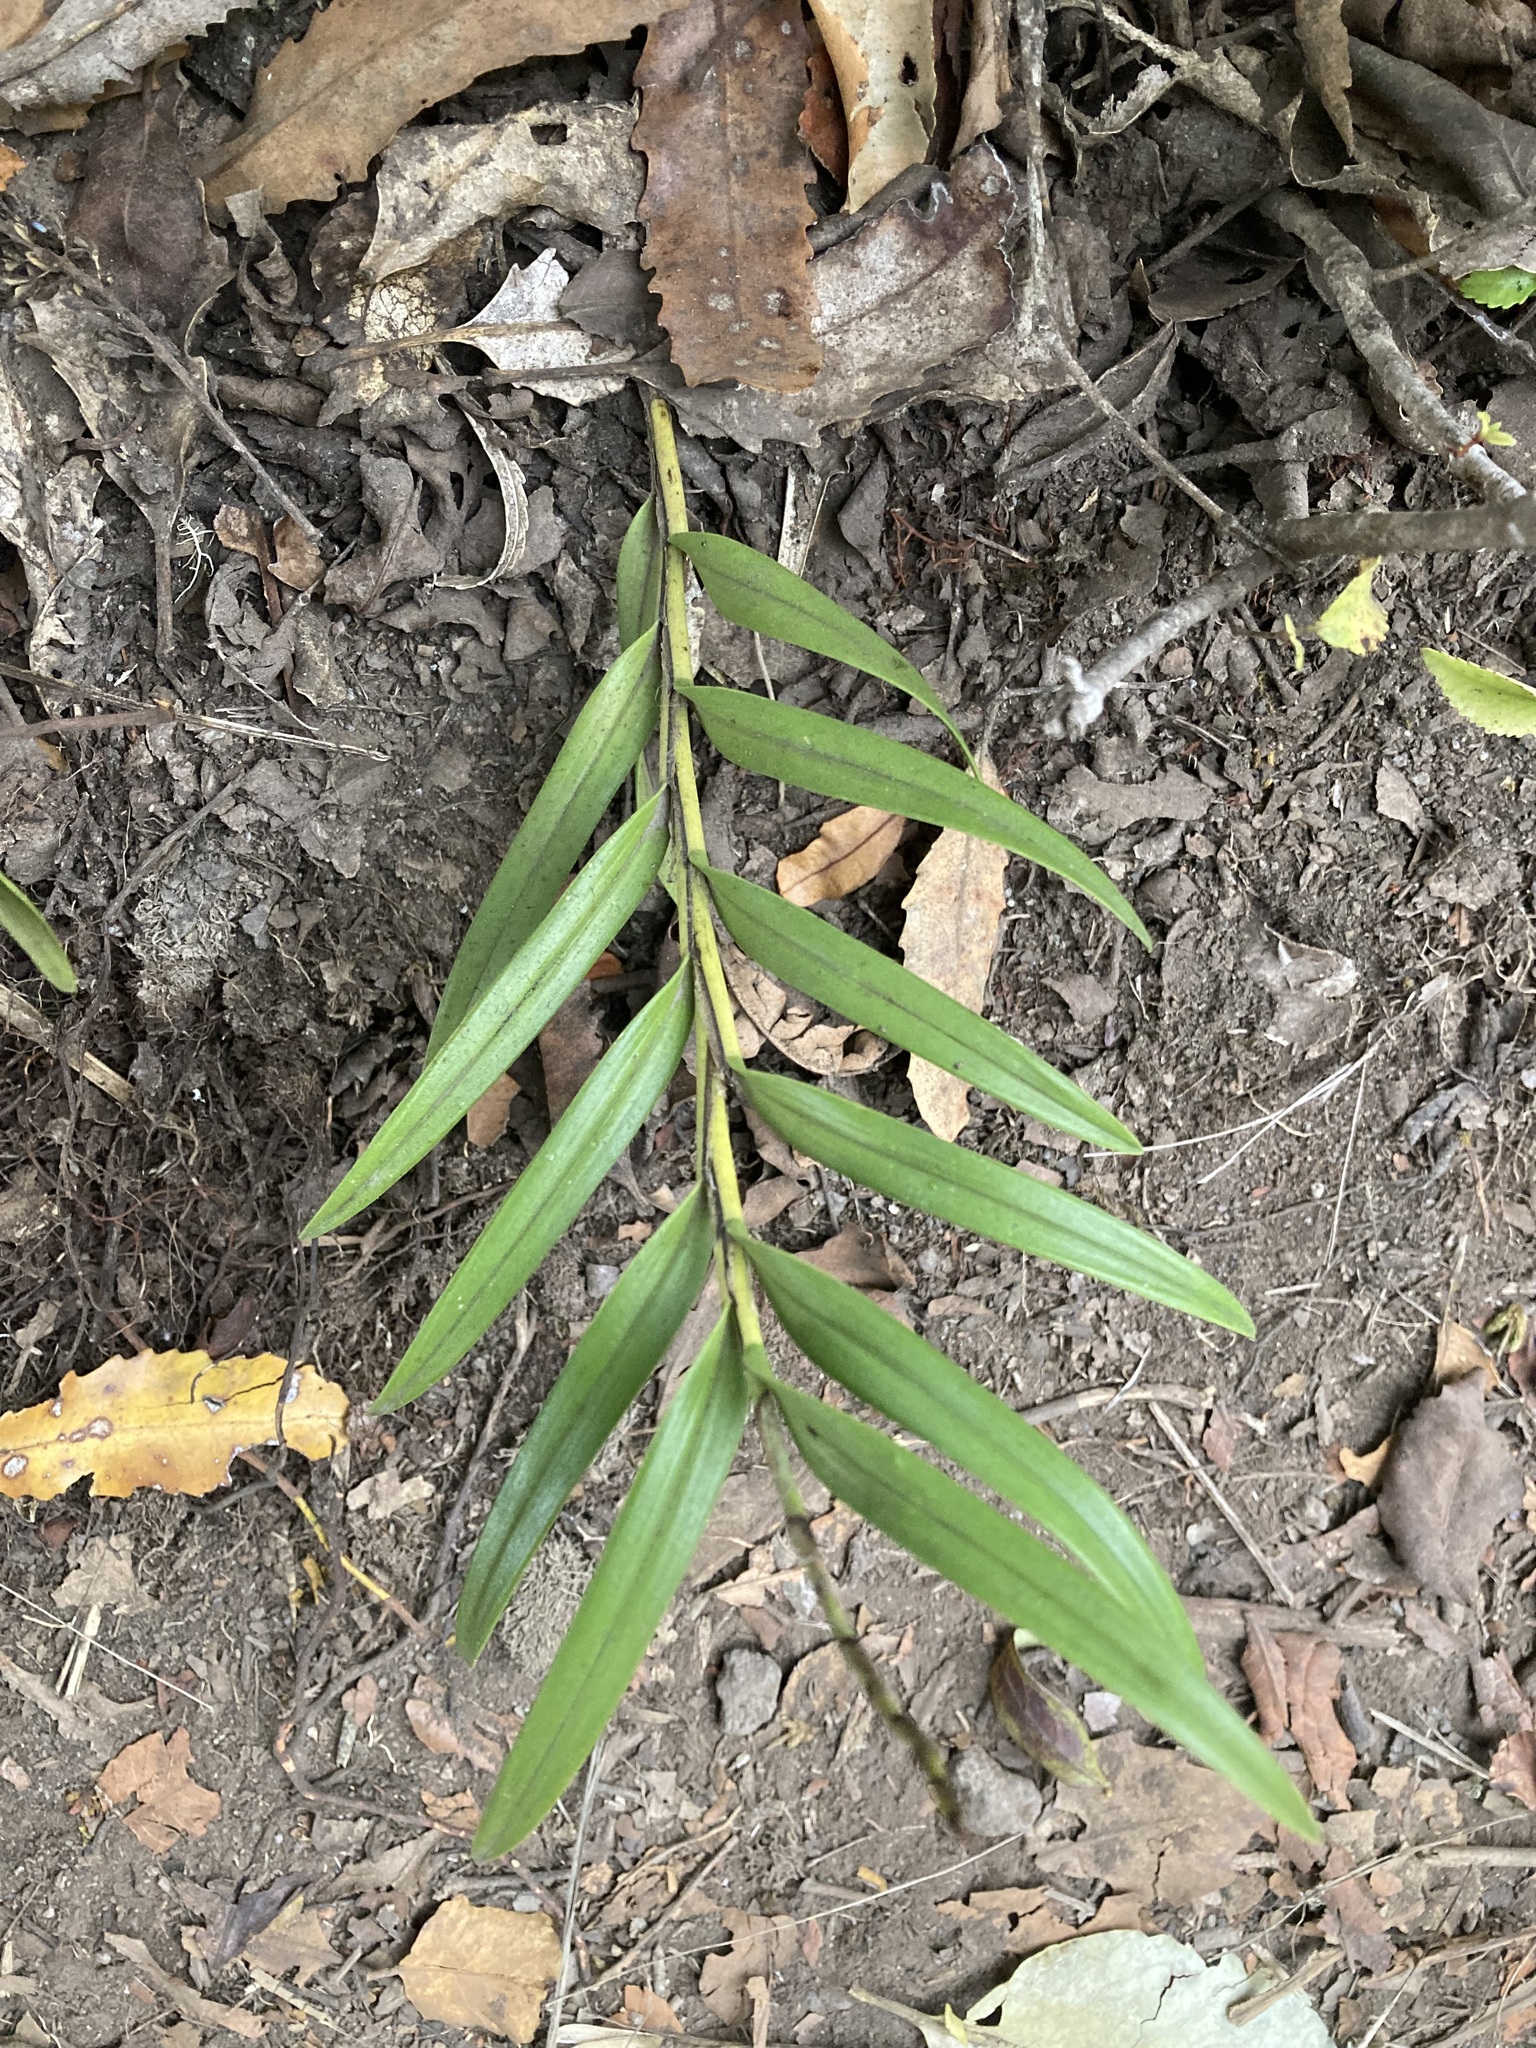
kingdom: Plantae
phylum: Tracheophyta
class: Liliopsida
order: Asparagales
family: Orchidaceae
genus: Earina
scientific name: Earina autumnalis
